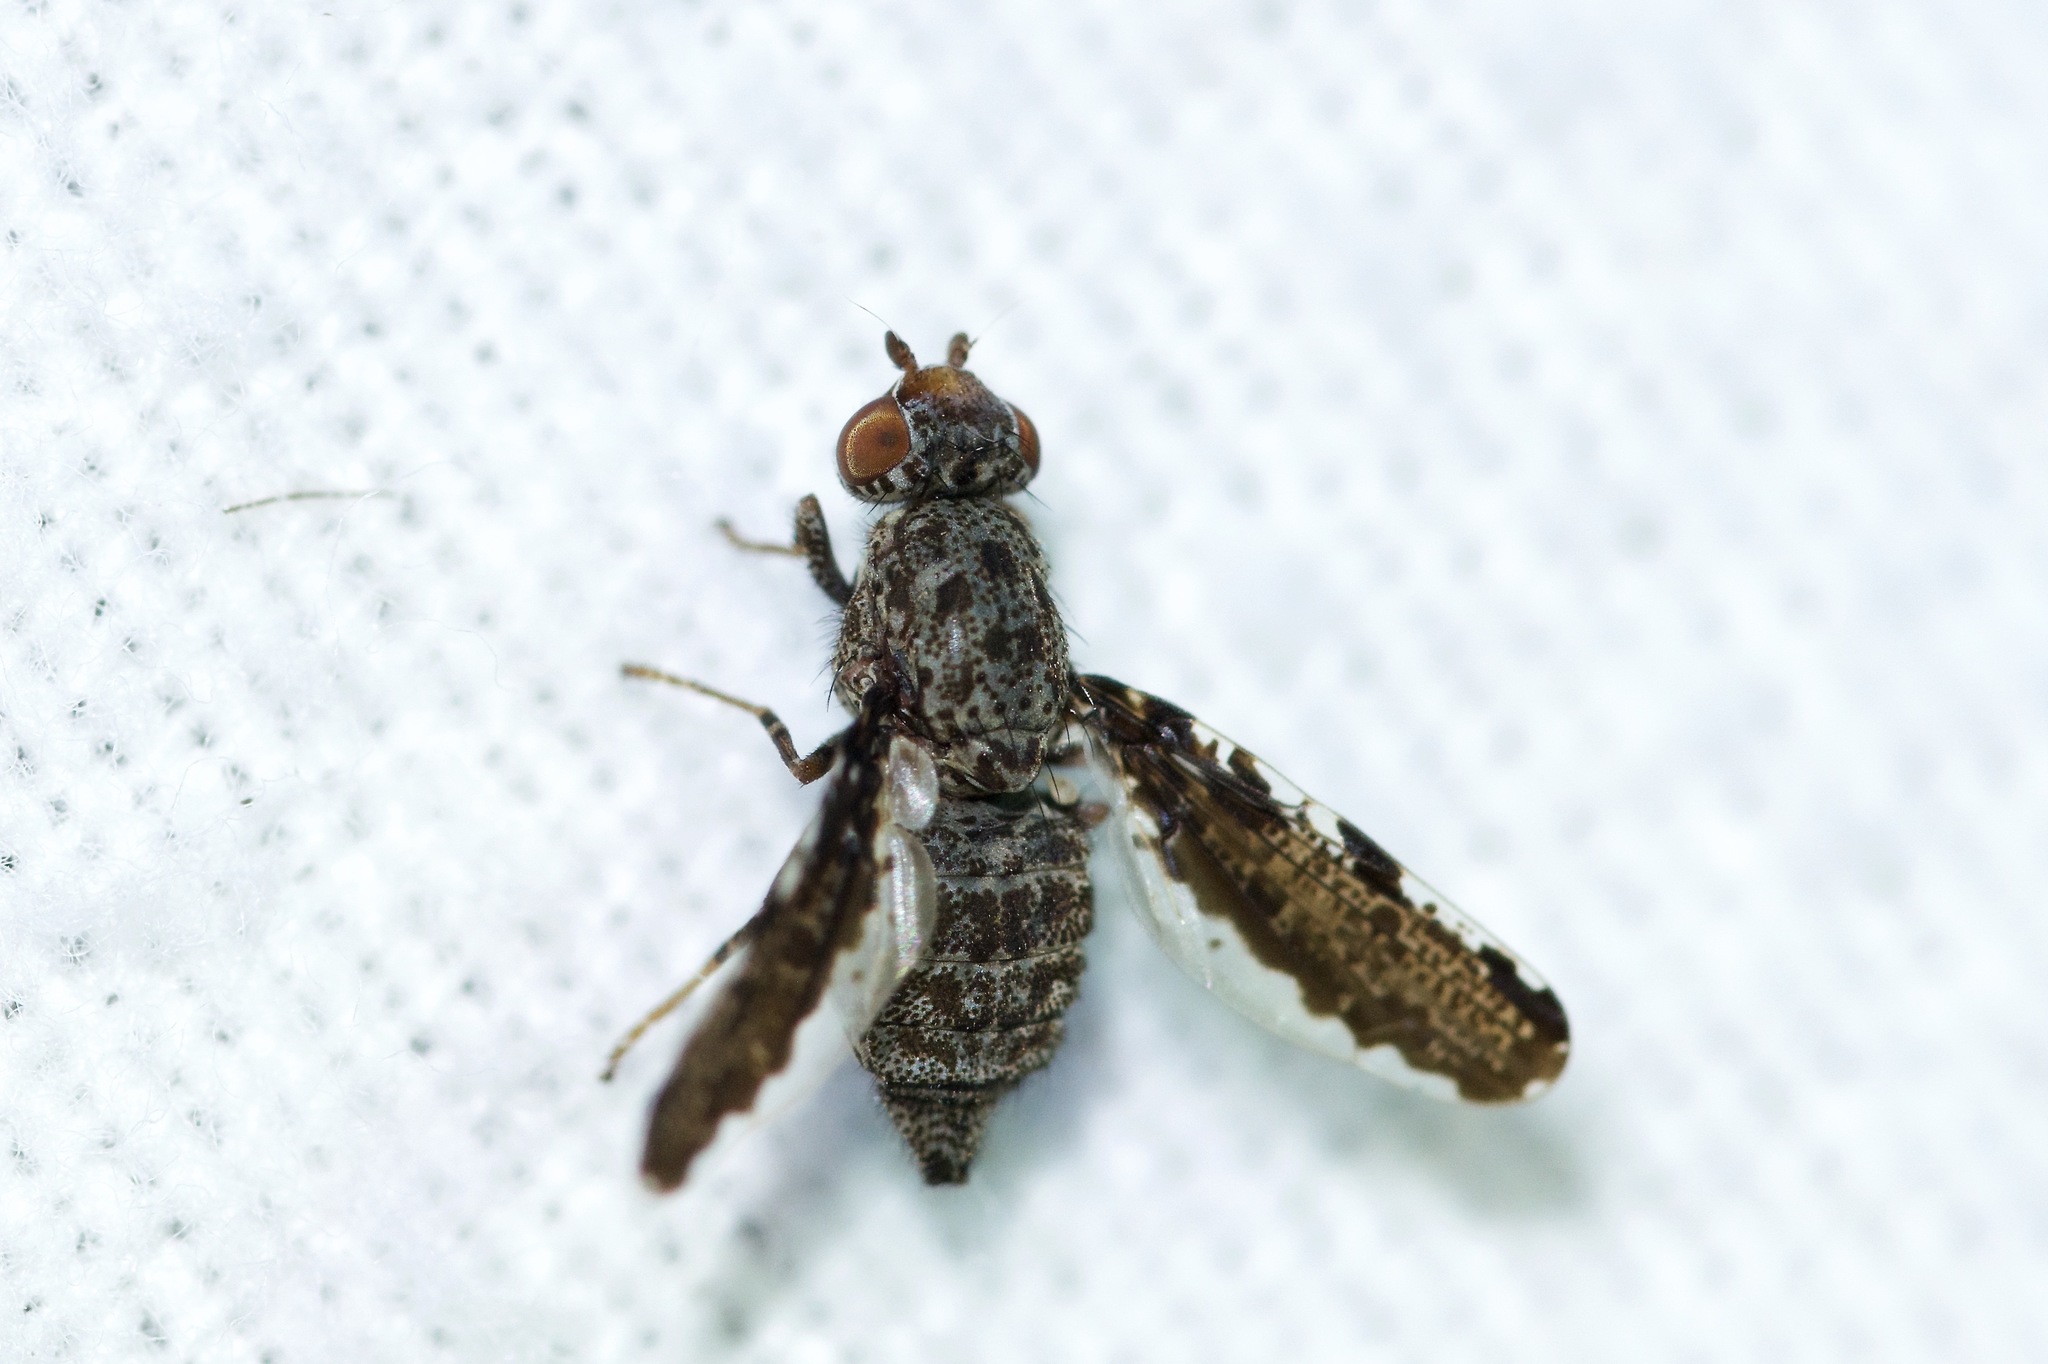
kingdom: Animalia
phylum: Arthropoda
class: Insecta
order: Diptera
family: Ulidiidae
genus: Callopistromyia
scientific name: Callopistromyia strigula
